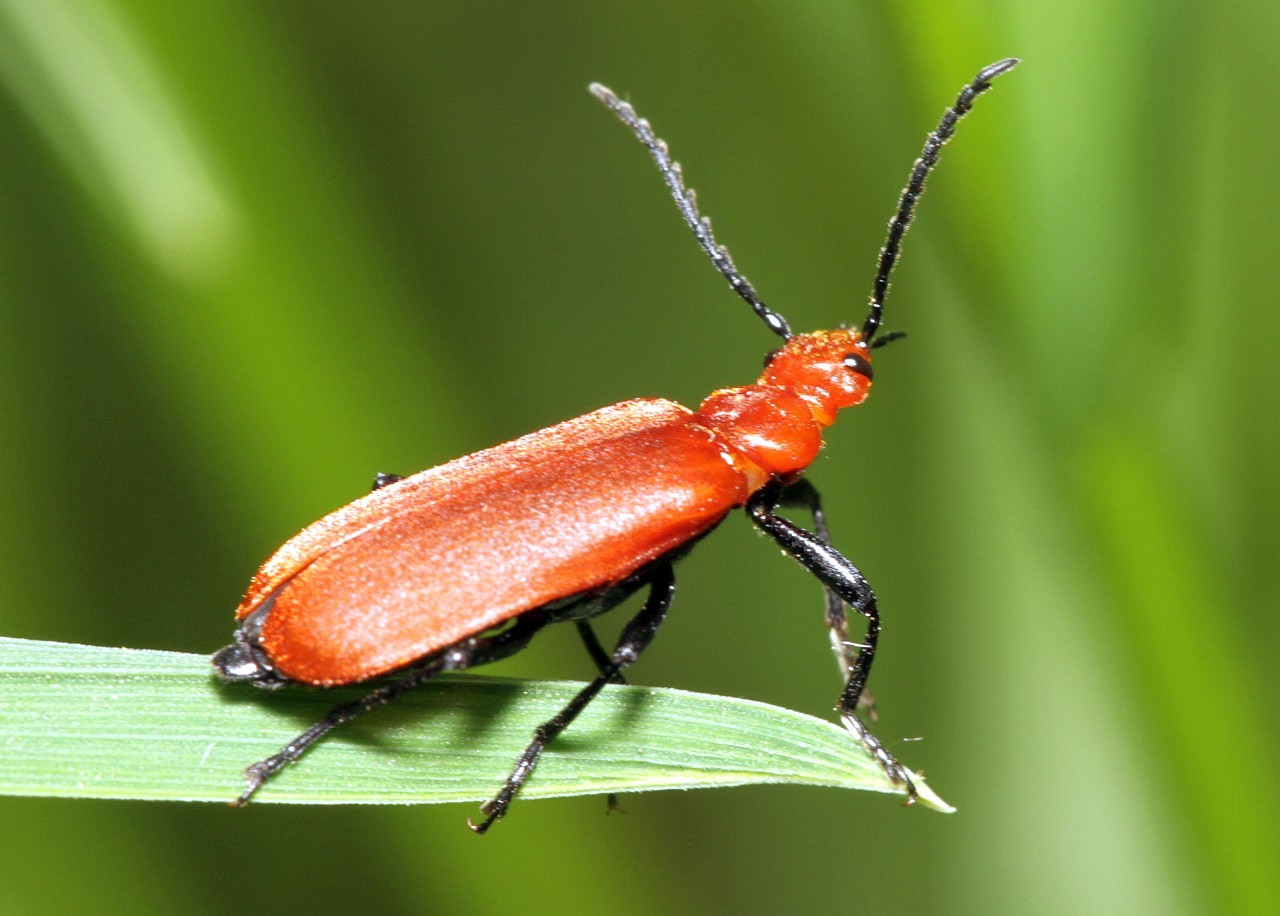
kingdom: Animalia
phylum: Arthropoda
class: Insecta
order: Coleoptera
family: Pyrochroidae
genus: Pyrochroa
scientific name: Pyrochroa serraticornis
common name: Red-headed cardinal beetle
